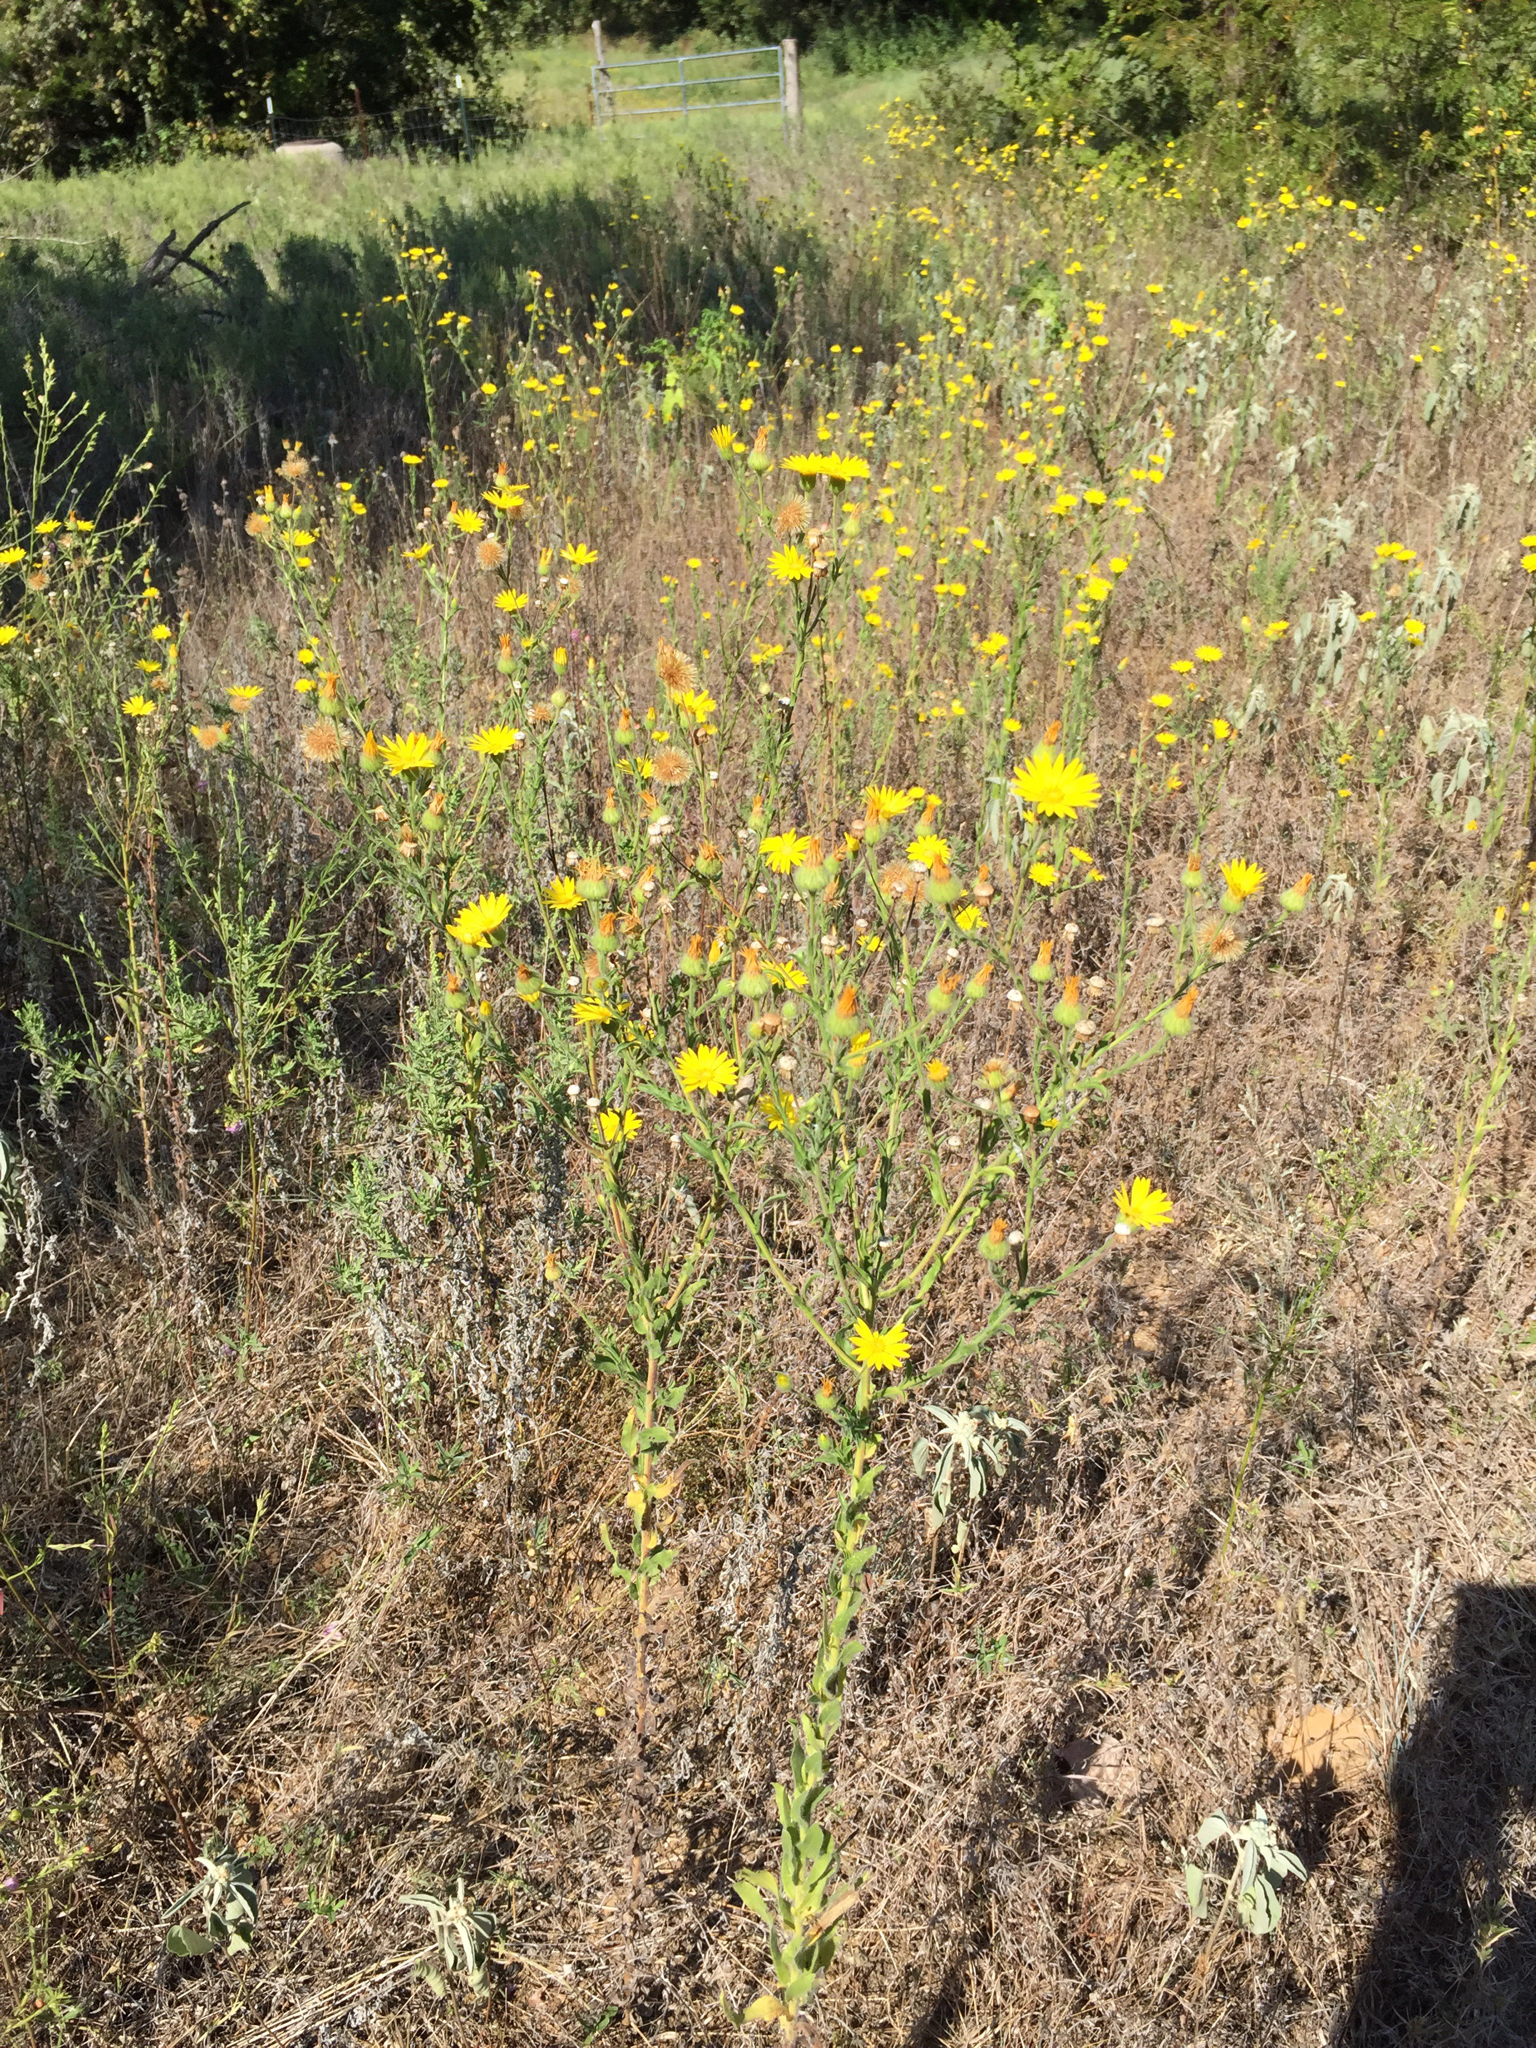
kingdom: Plantae
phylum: Tracheophyta
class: Magnoliopsida
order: Asterales
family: Asteraceae
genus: Bradburia
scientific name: Bradburia pilosa
